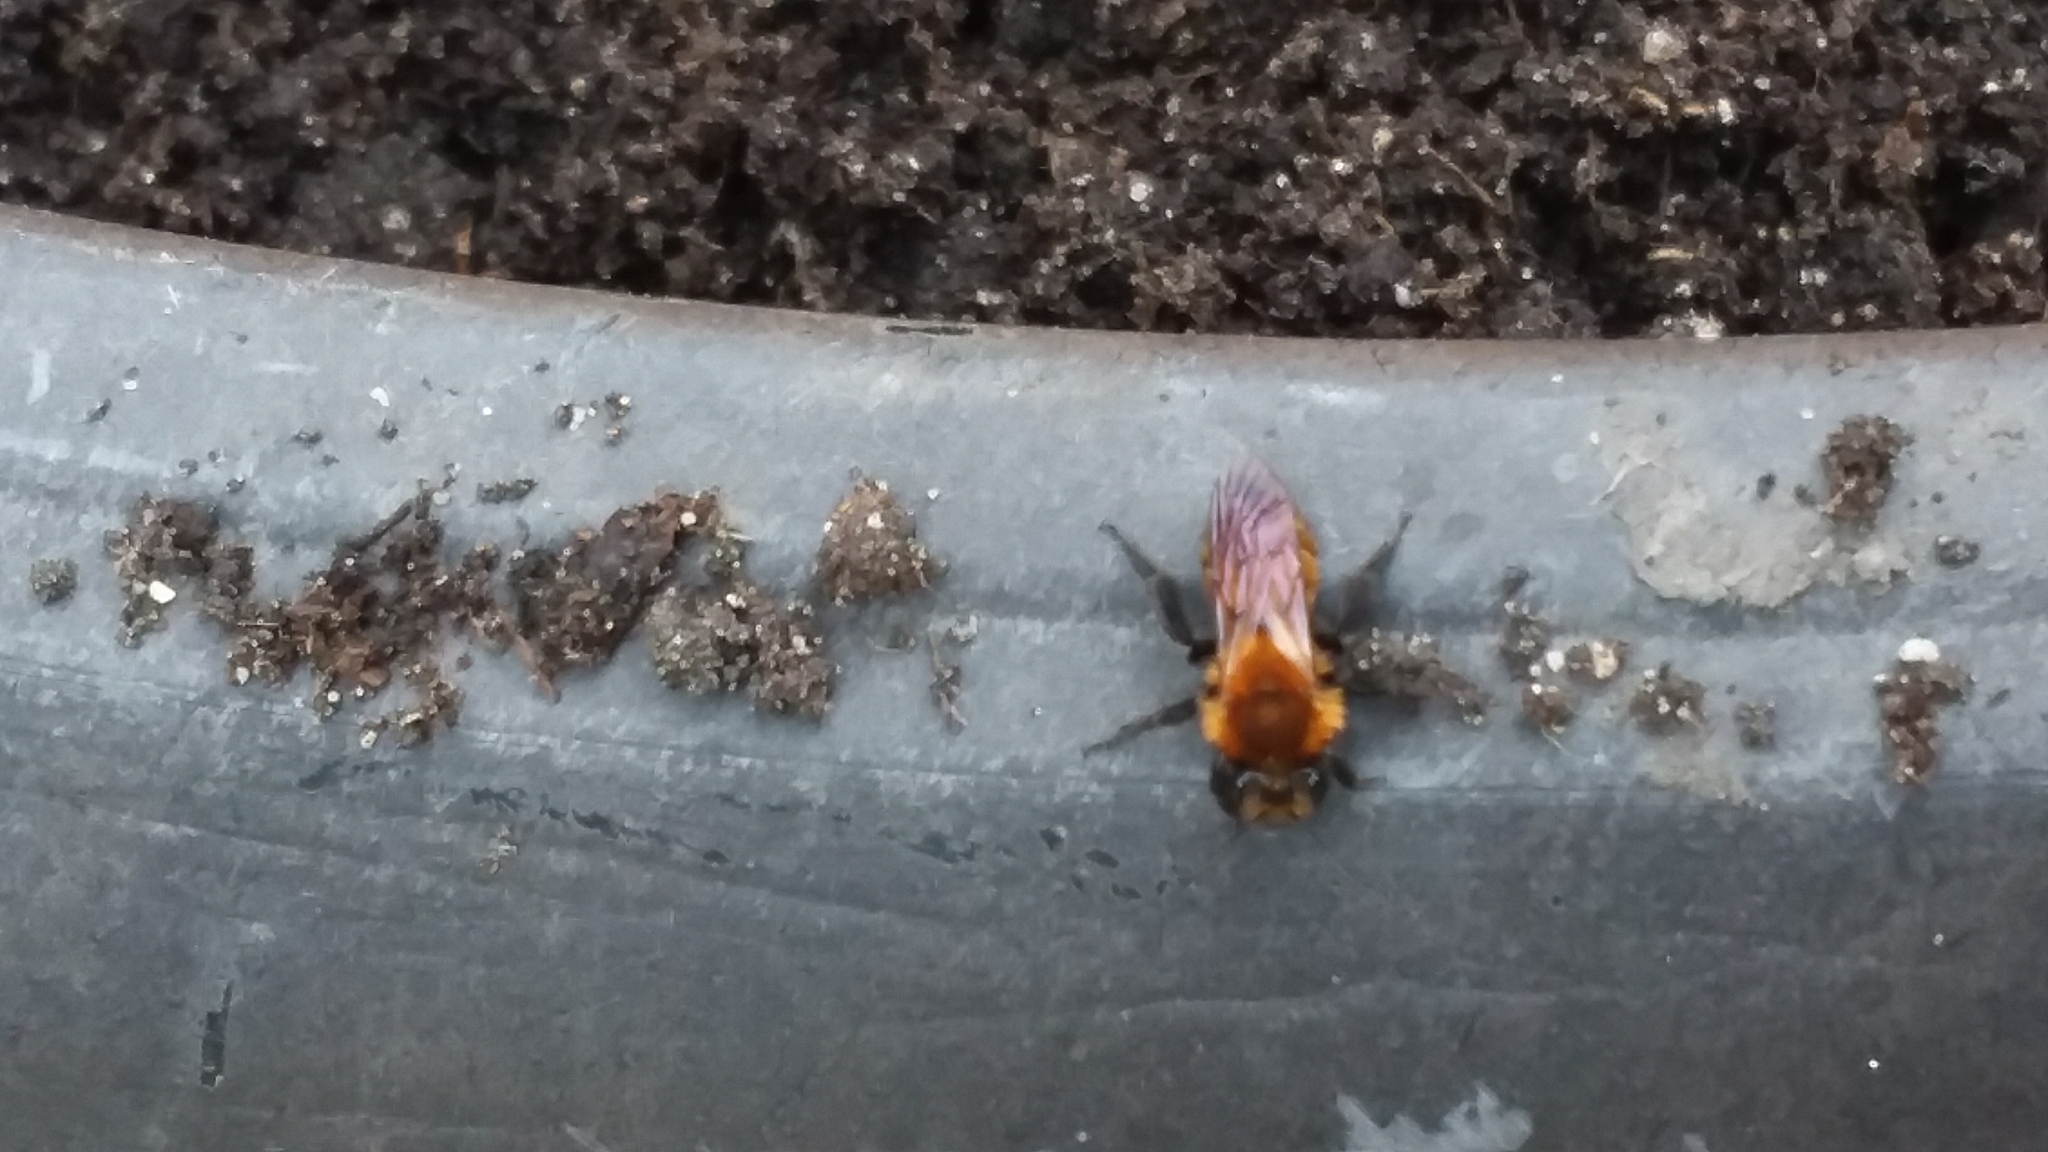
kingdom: Animalia
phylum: Arthropoda
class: Insecta
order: Hymenoptera
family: Andrenidae
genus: Andrena
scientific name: Andrena milwaukeensis
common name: Milwaukee mining bee
